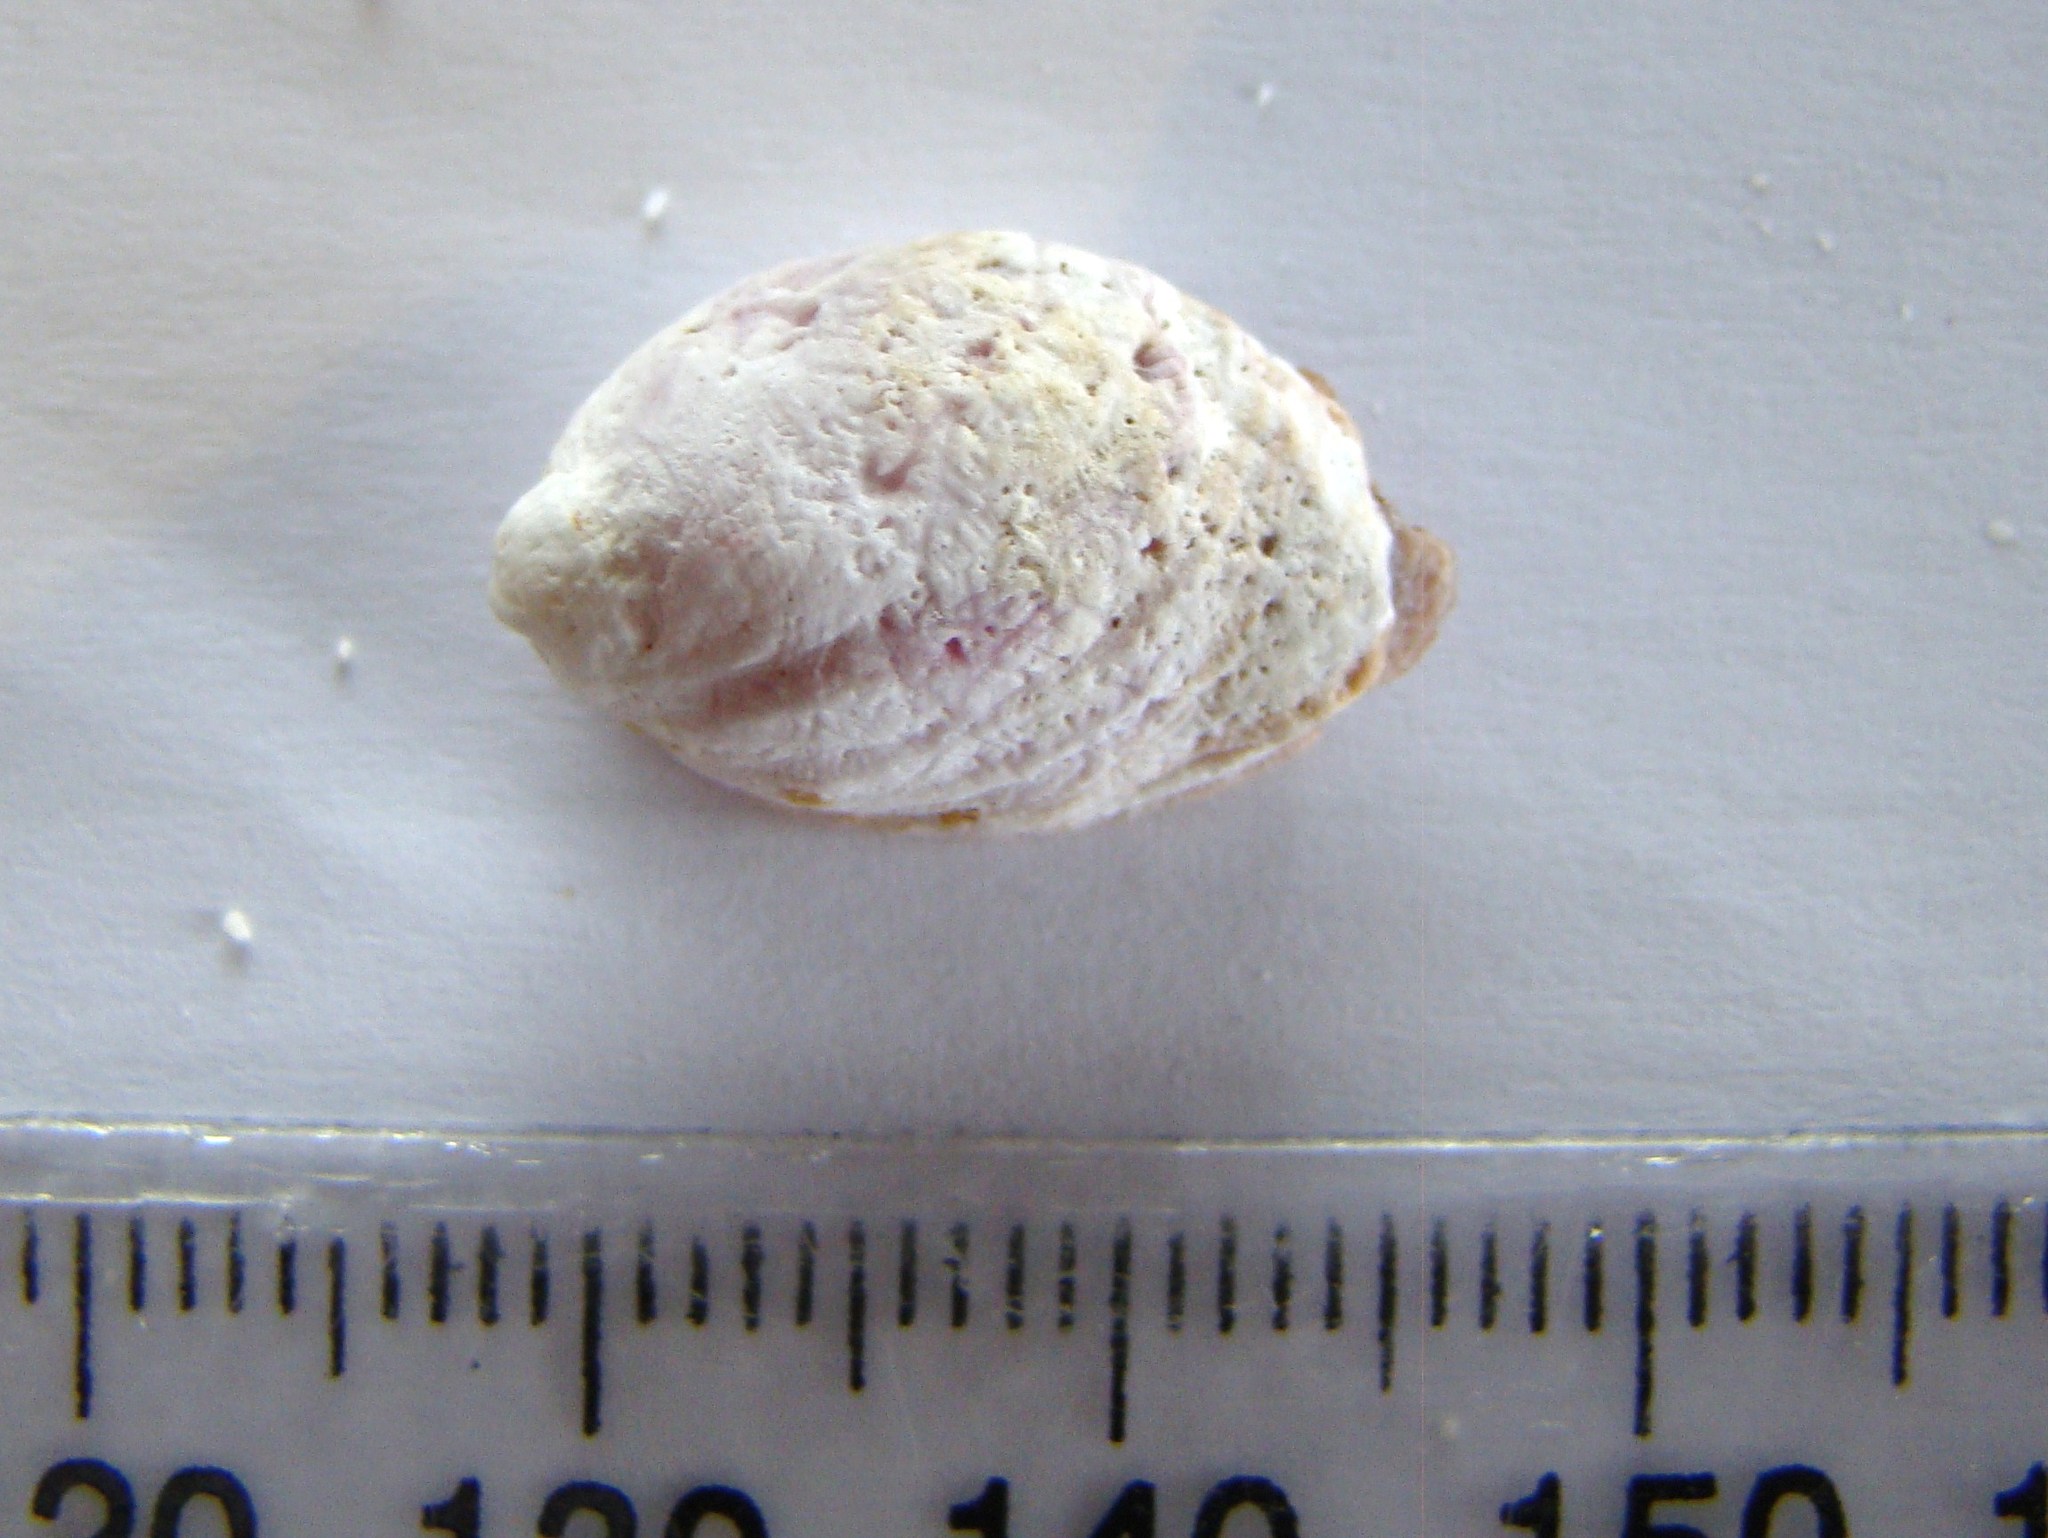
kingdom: Animalia
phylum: Mollusca
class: Gastropoda
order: Neogastropoda
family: Muricidae
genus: Galeropsis
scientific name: Galeropsis monodonta
